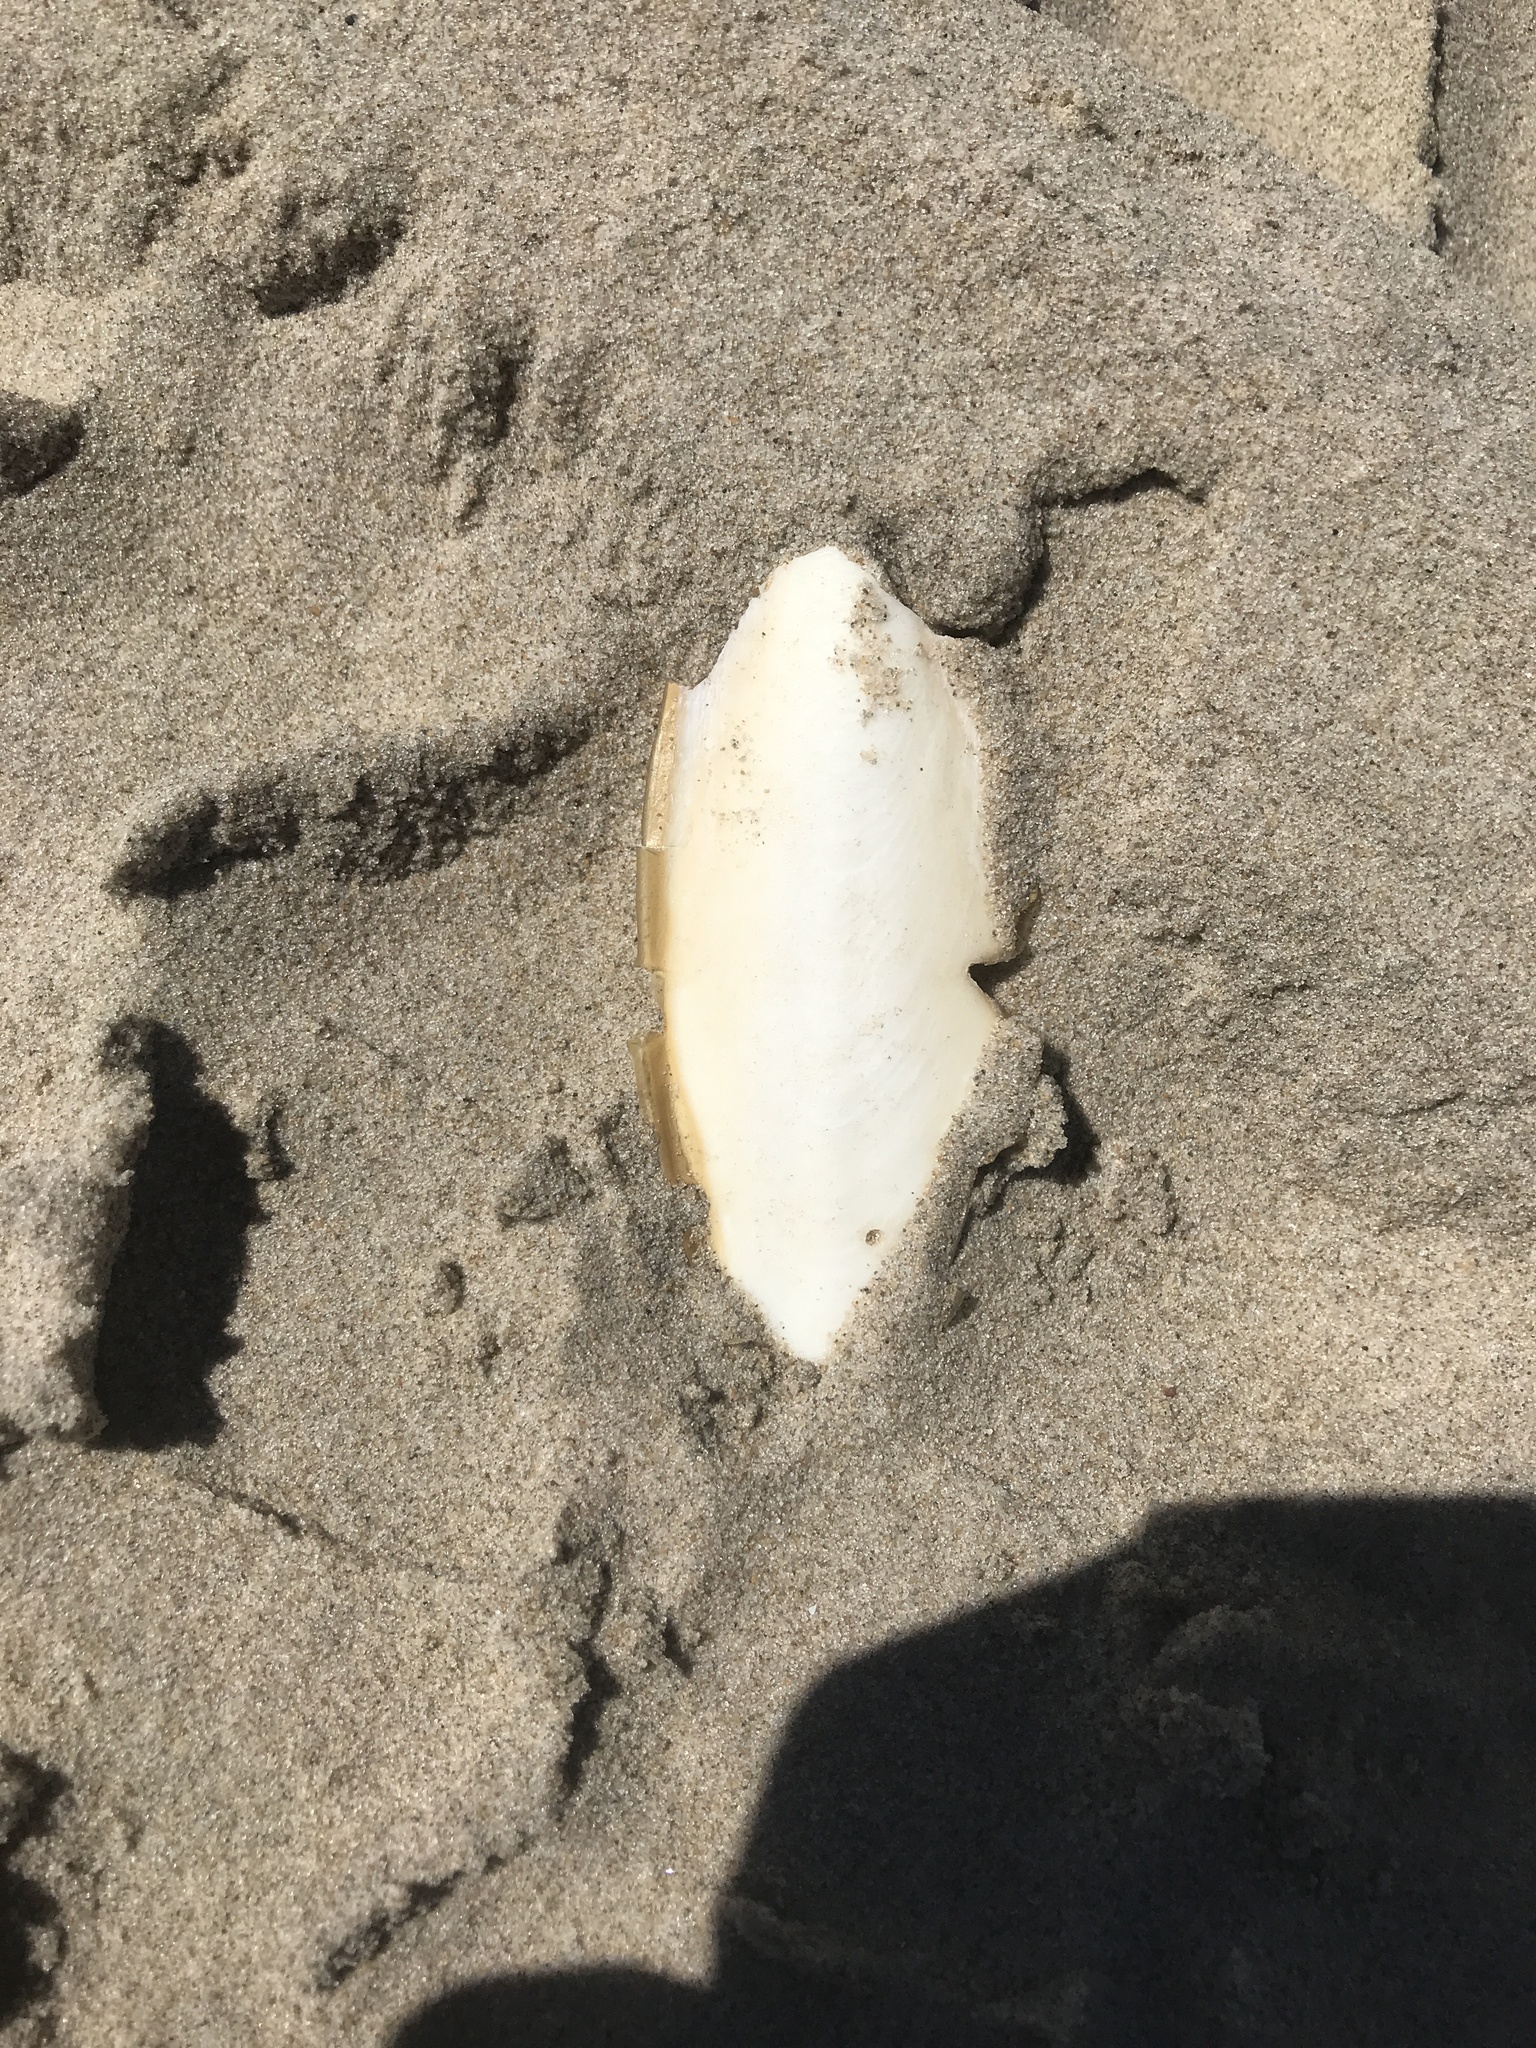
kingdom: Animalia
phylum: Mollusca
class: Cephalopoda
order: Sepiida
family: Sepiidae
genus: Sepia
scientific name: Sepia officinalis
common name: Common cuttlefish
